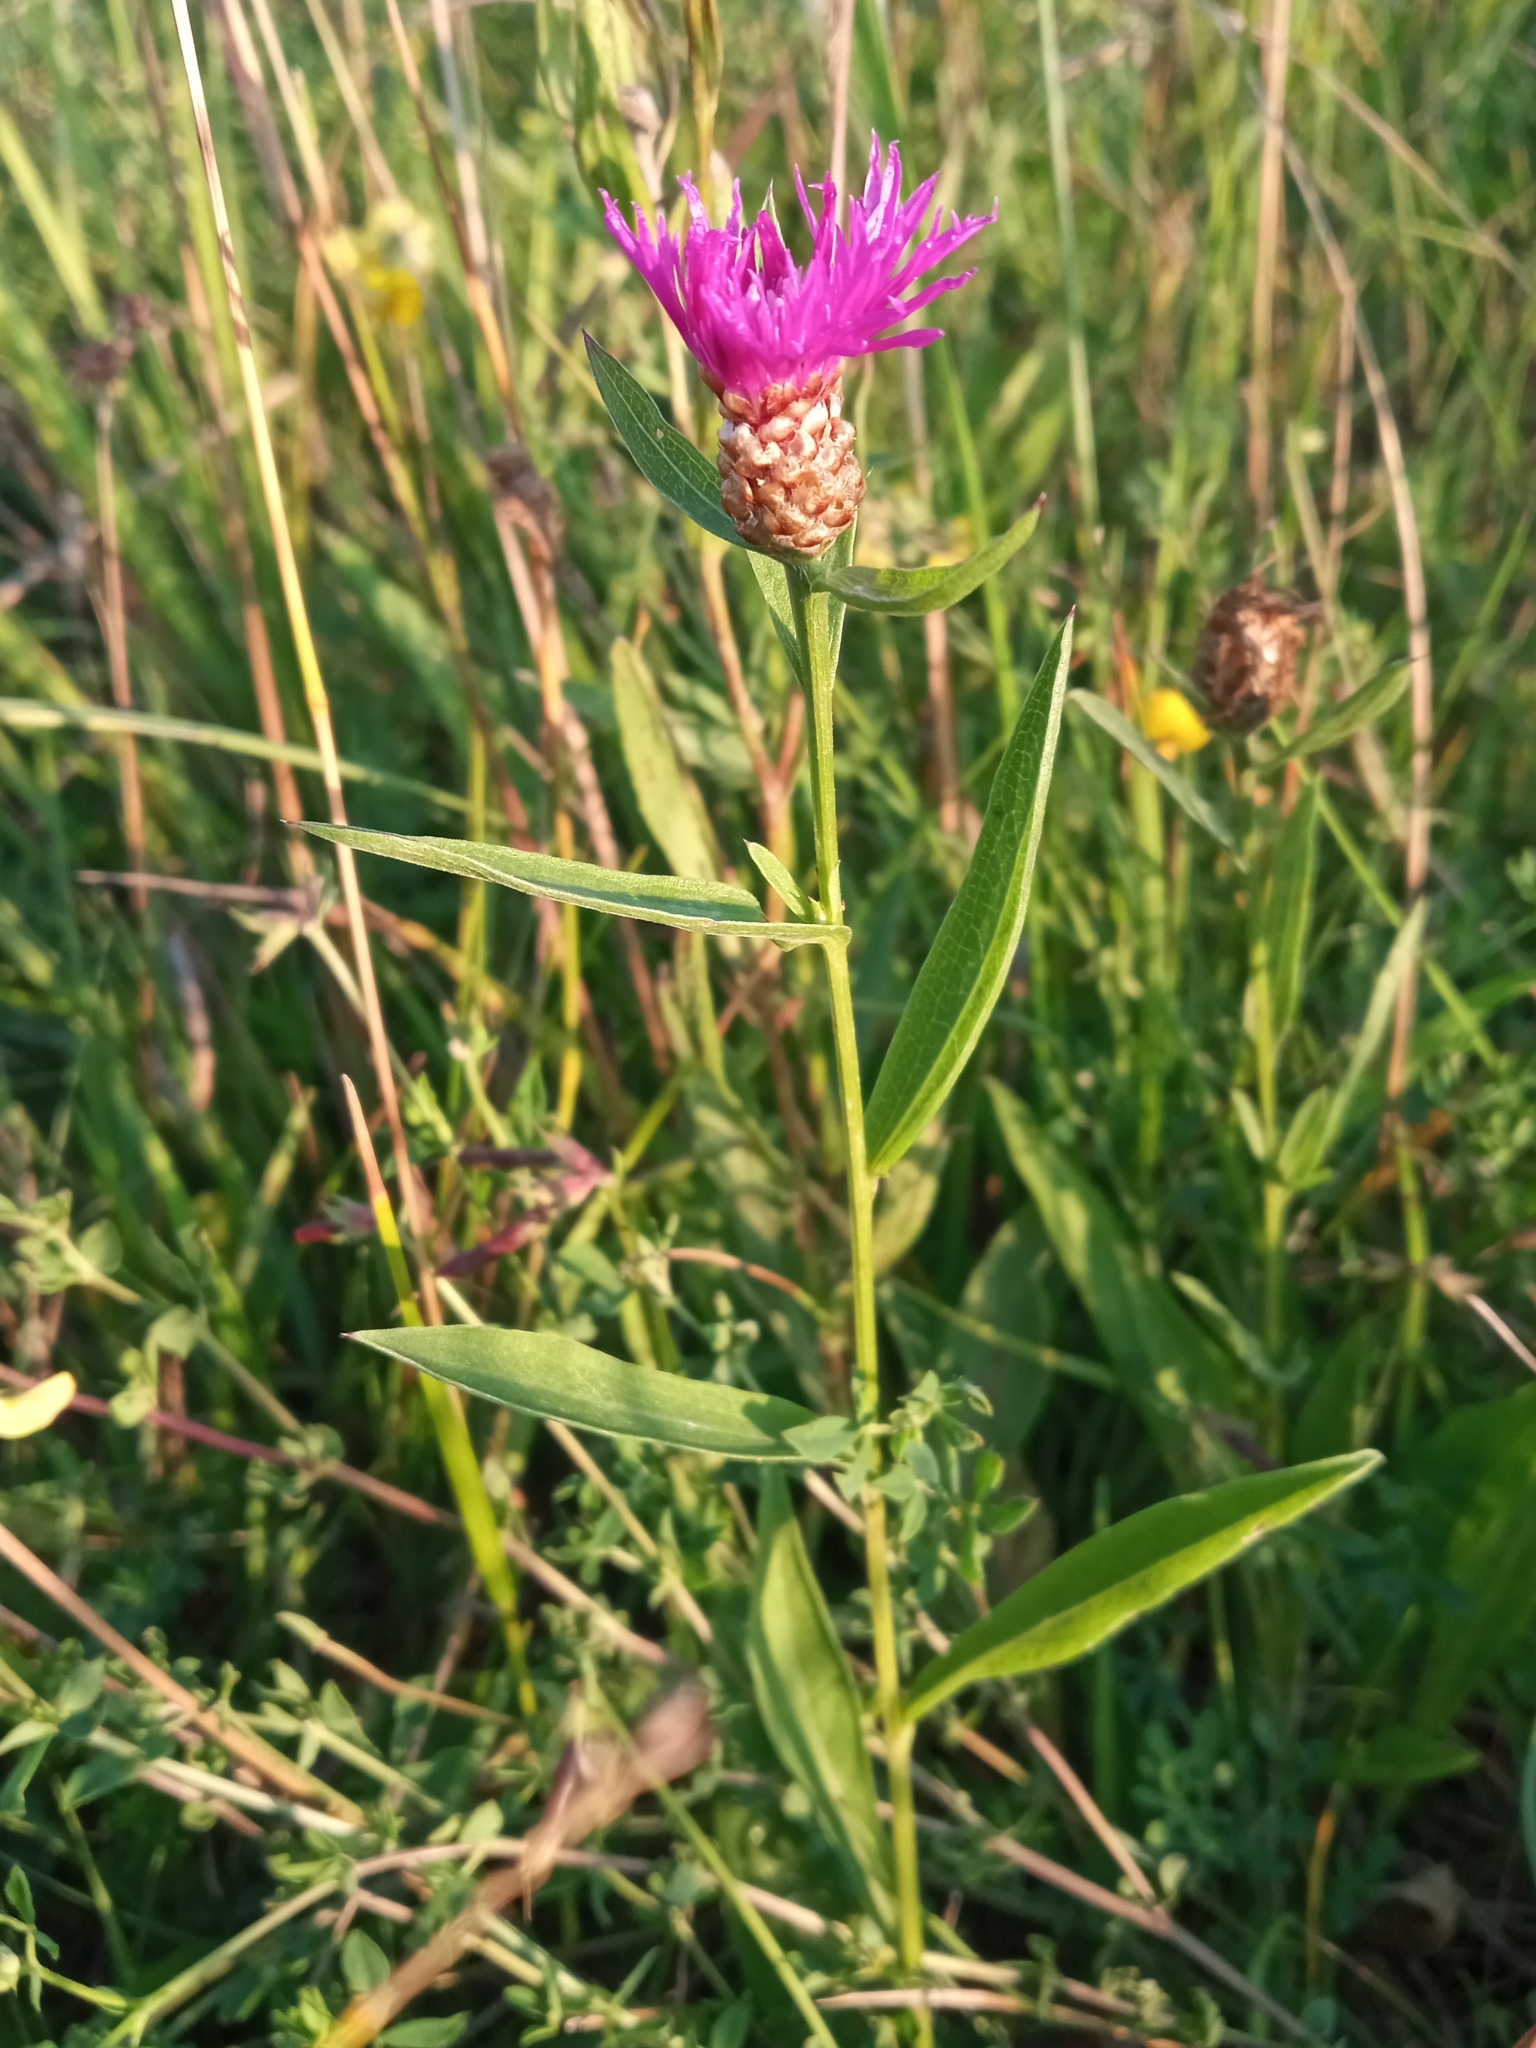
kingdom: Plantae
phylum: Tracheophyta
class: Magnoliopsida
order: Asterales
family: Asteraceae
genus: Centaurea
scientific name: Centaurea jacea
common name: Brown knapweed
